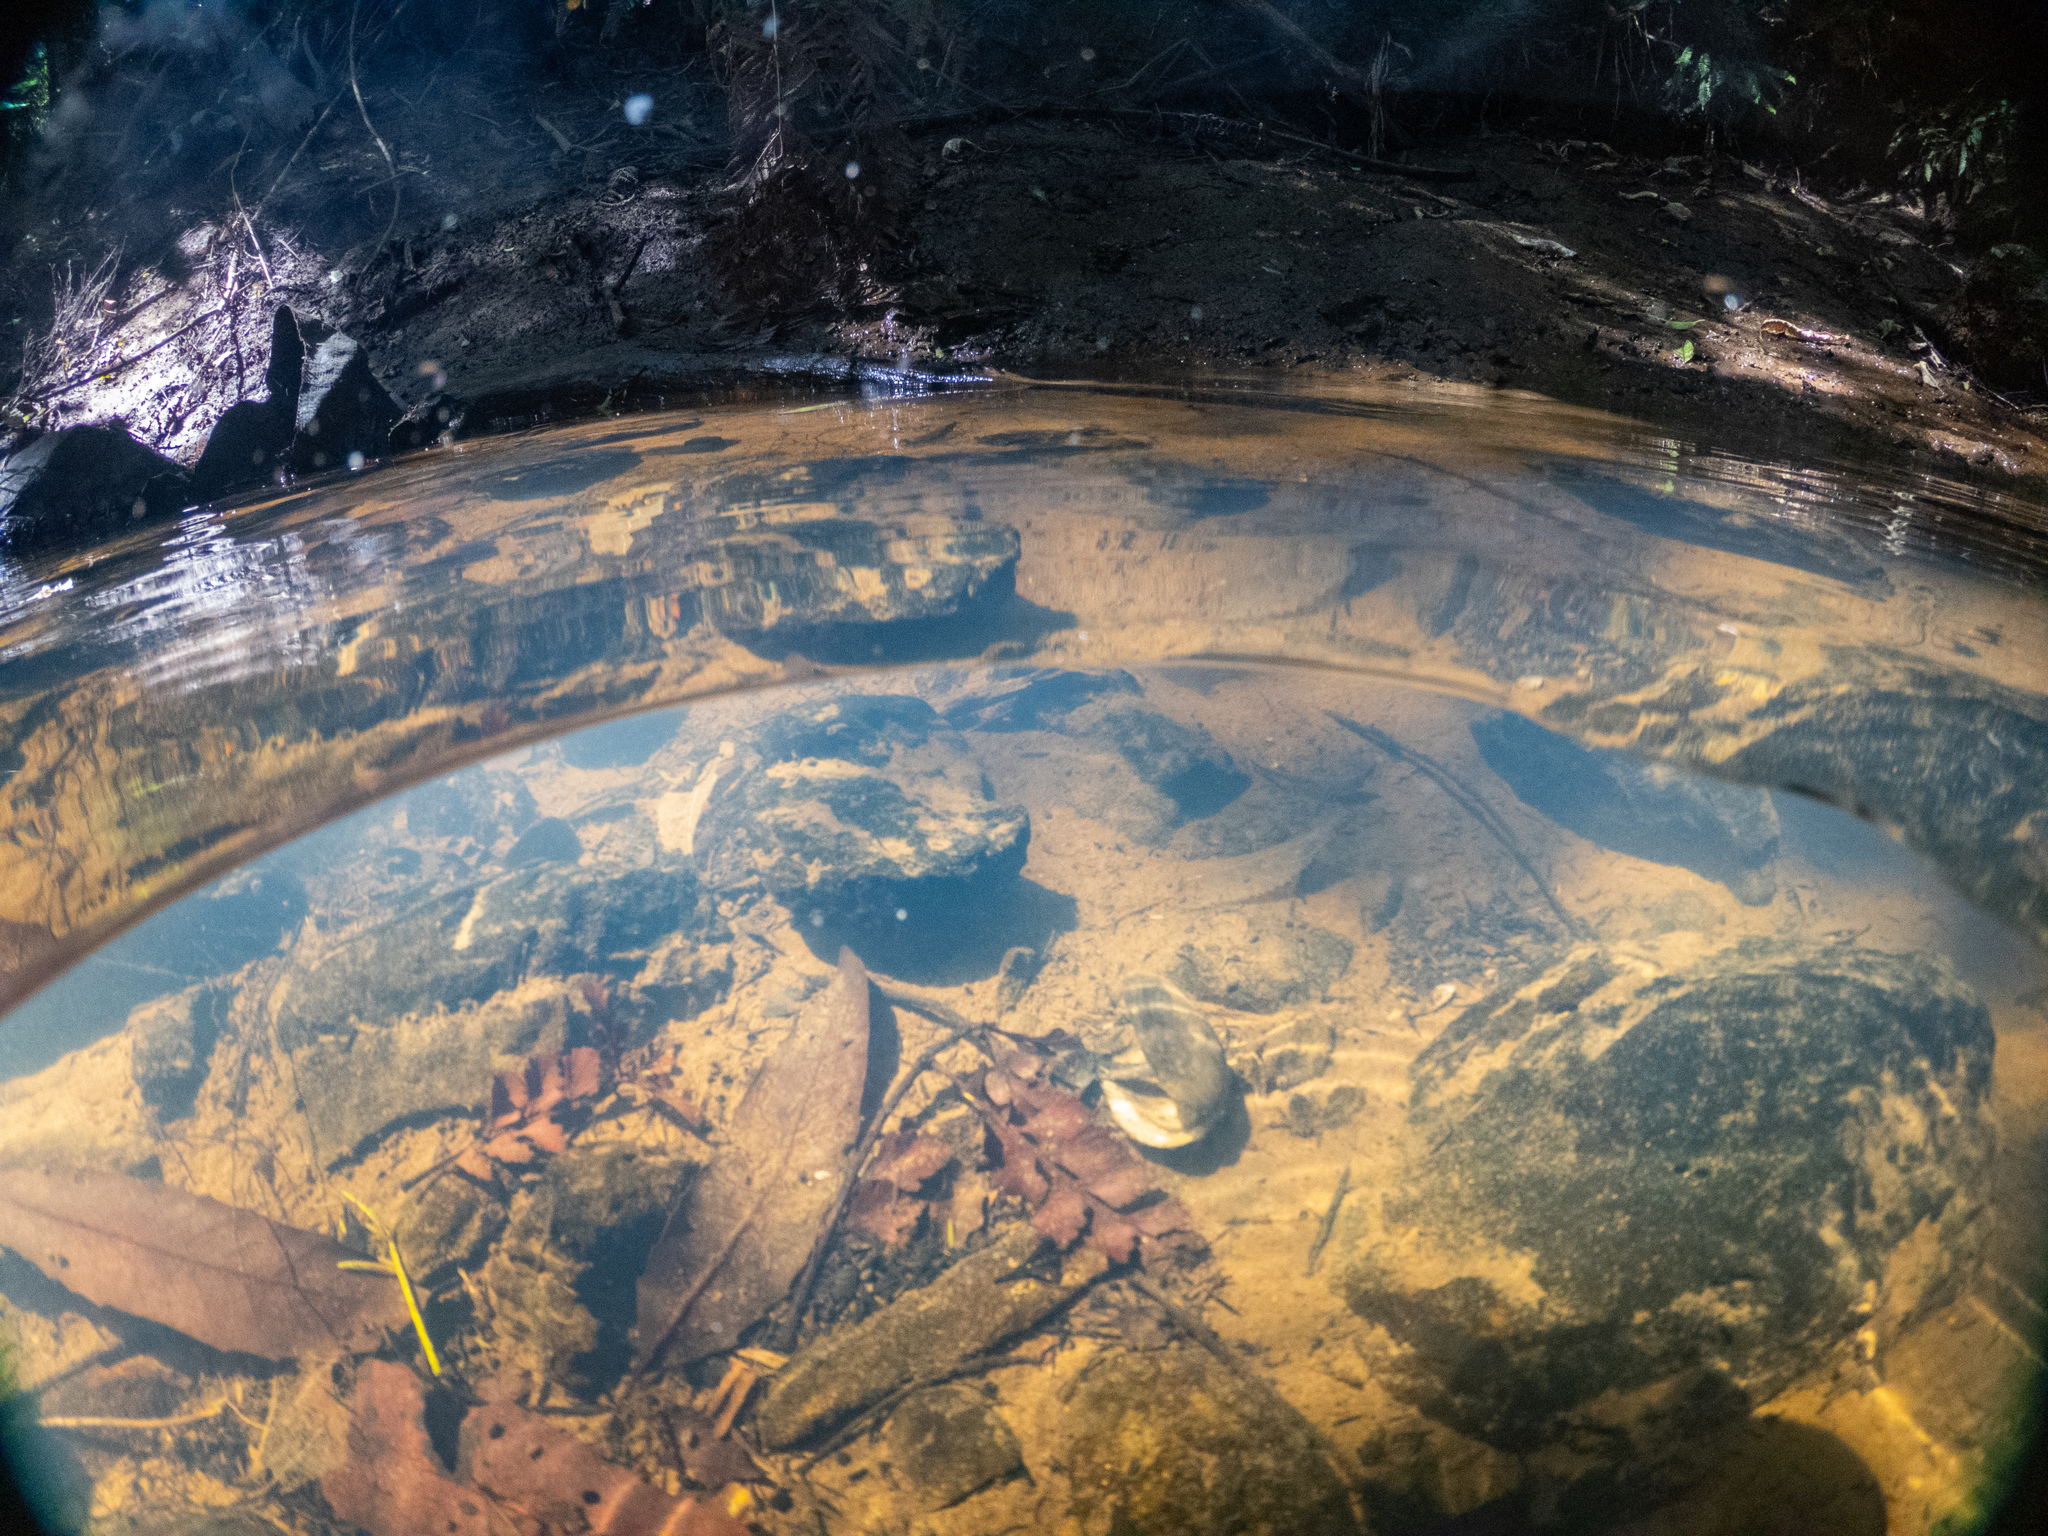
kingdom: Animalia
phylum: Mollusca
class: Bivalvia
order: Unionida
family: Hyriidae
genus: Echyridella
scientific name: Echyridella
